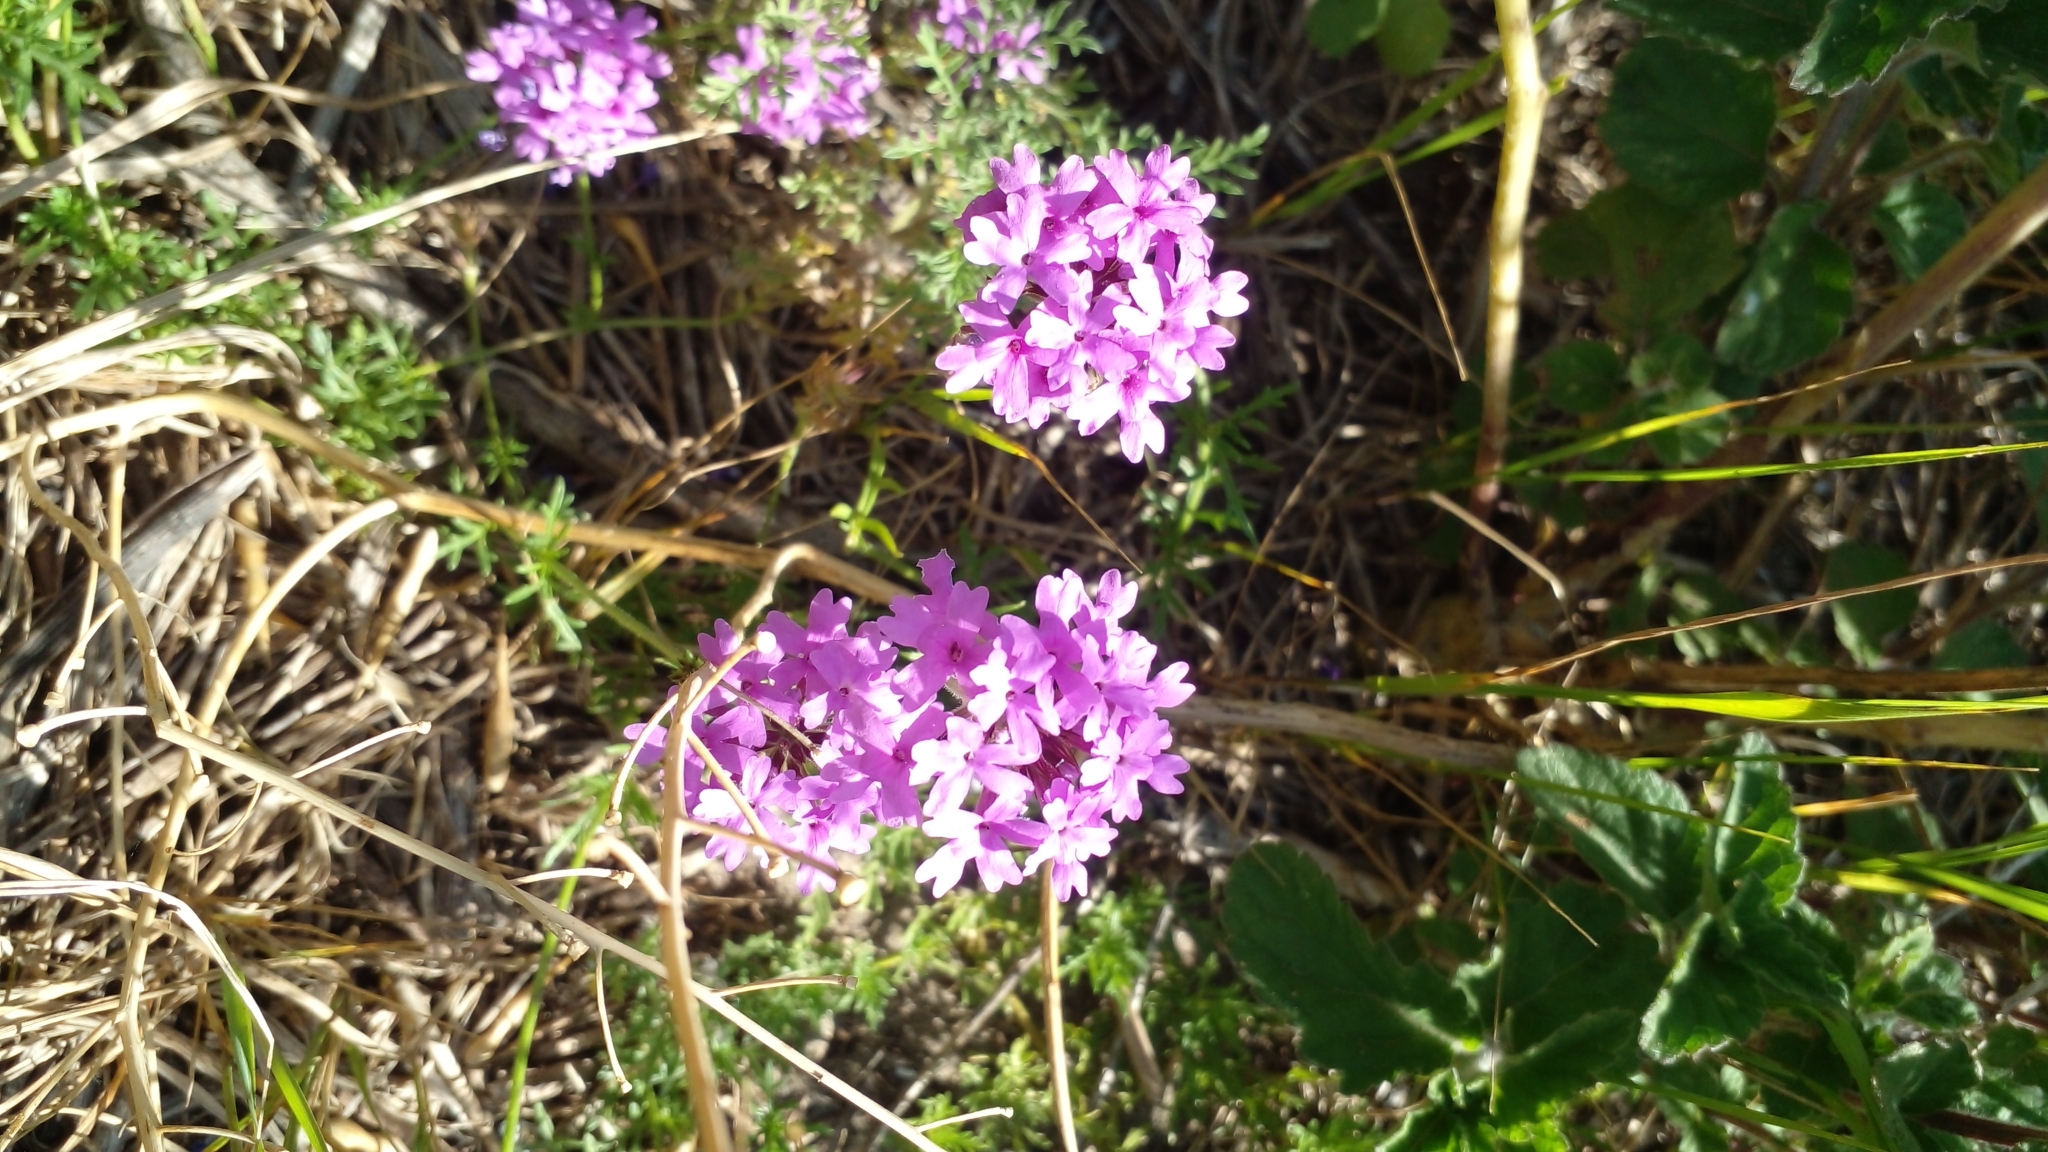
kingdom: Plantae
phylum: Tracheophyta
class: Magnoliopsida
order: Lamiales
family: Verbenaceae
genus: Verbena
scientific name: Verbena selloi
